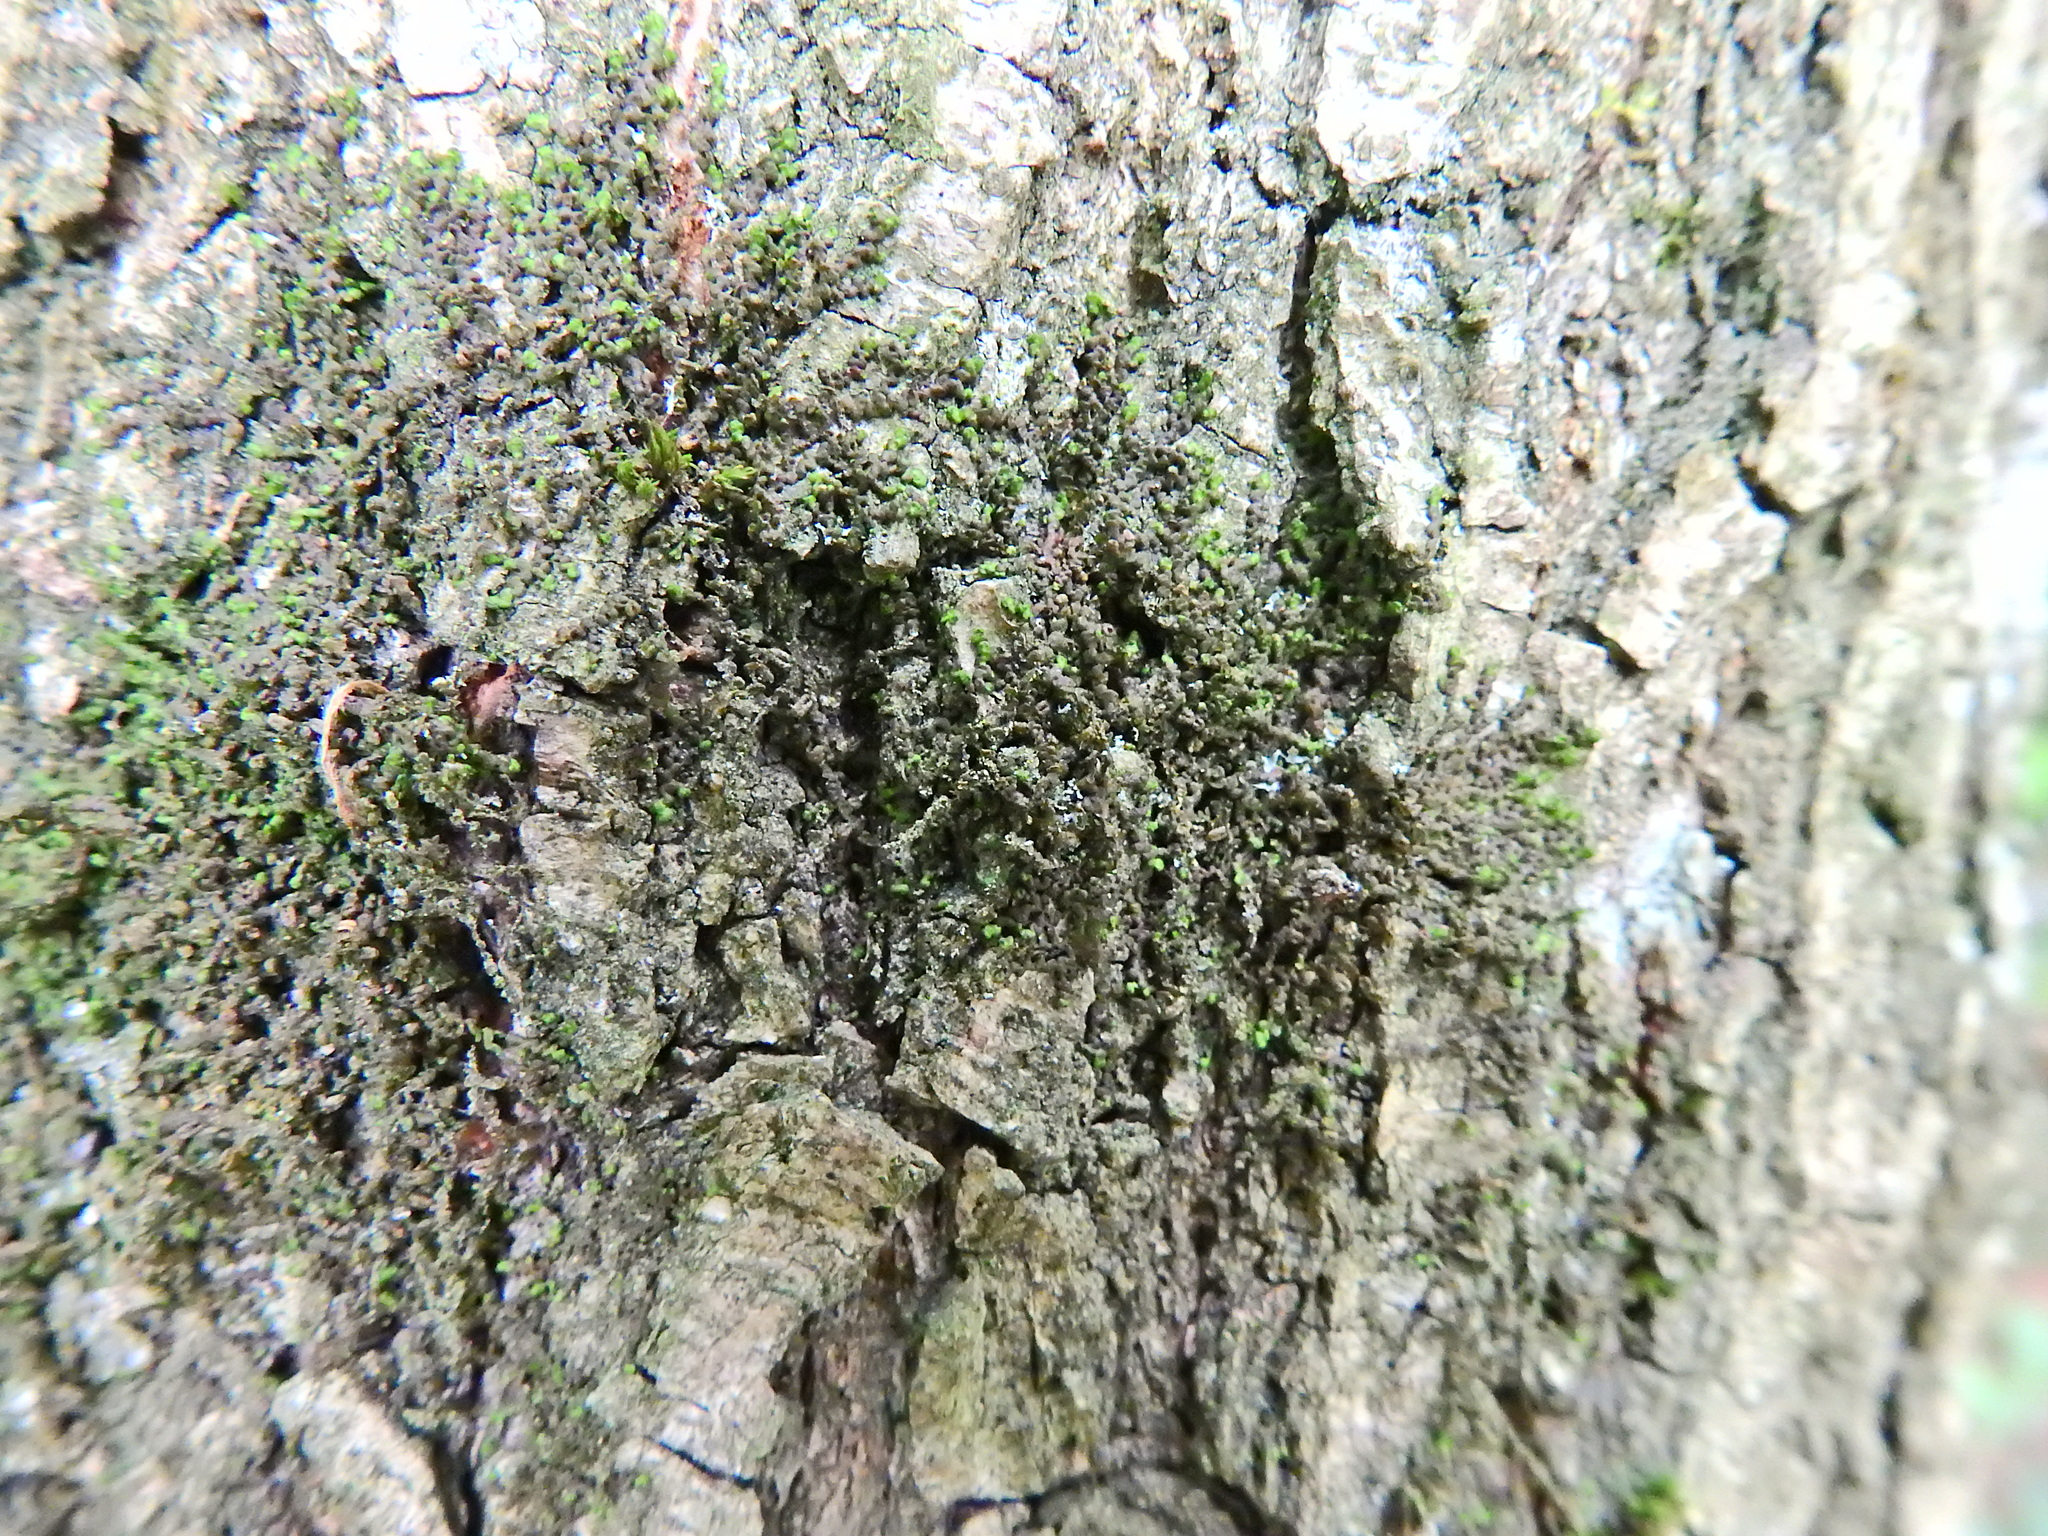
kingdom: Plantae
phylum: Marchantiophyta
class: Jungermanniopsida
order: Porellales
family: Frullaniaceae
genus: Frullania
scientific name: Frullania dilatata
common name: Dilated scalewort
